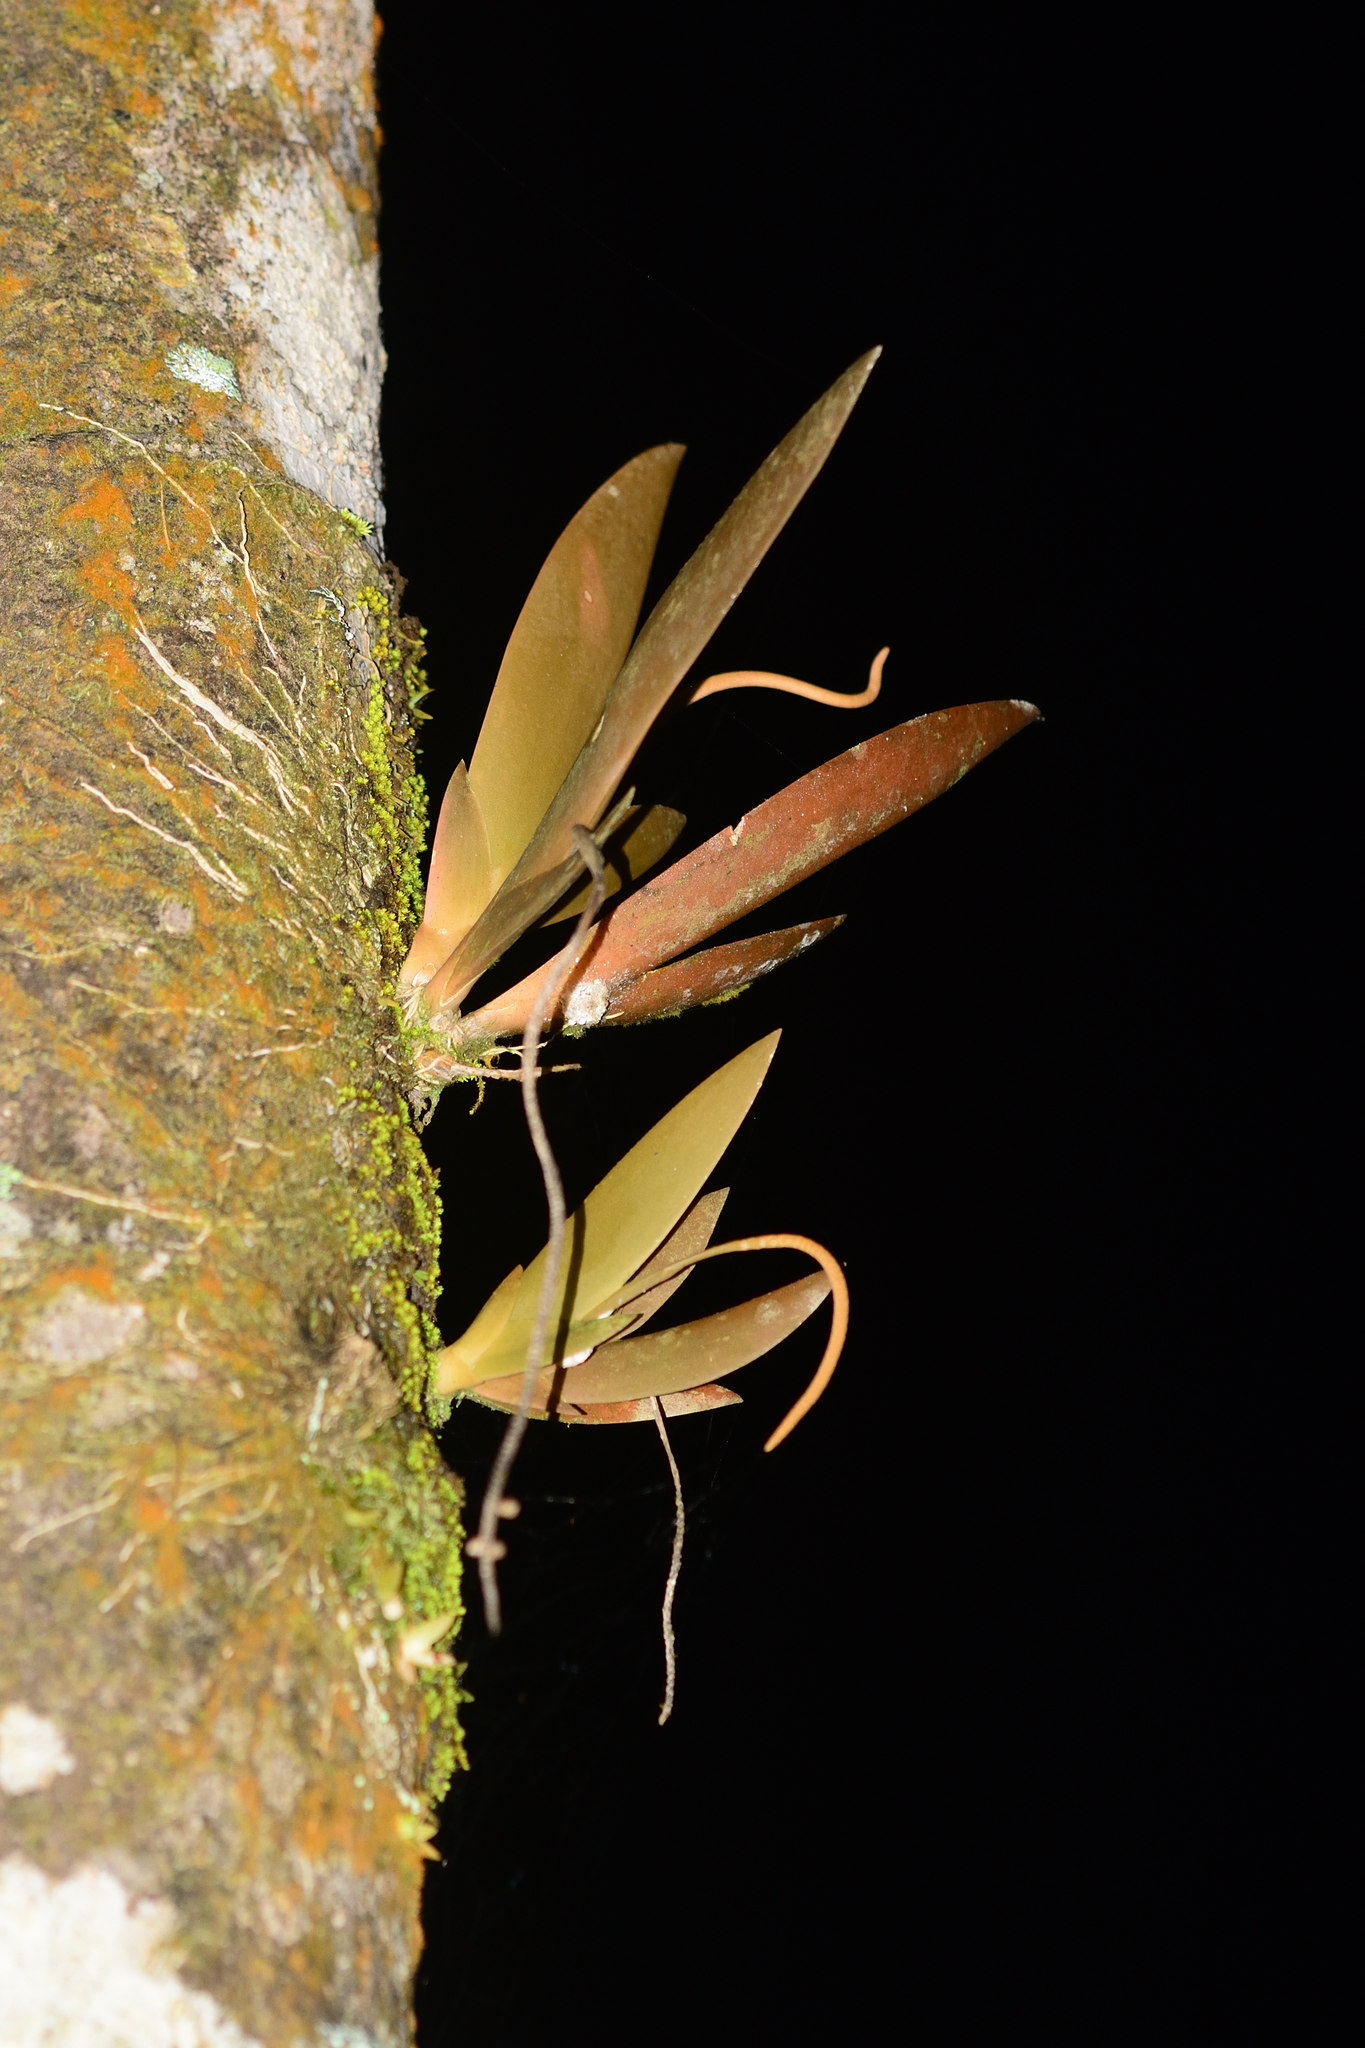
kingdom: Plantae
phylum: Tracheophyta
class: Liliopsida
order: Asparagales
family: Orchidaceae
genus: Oberonia
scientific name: Oberonia brunoniana
